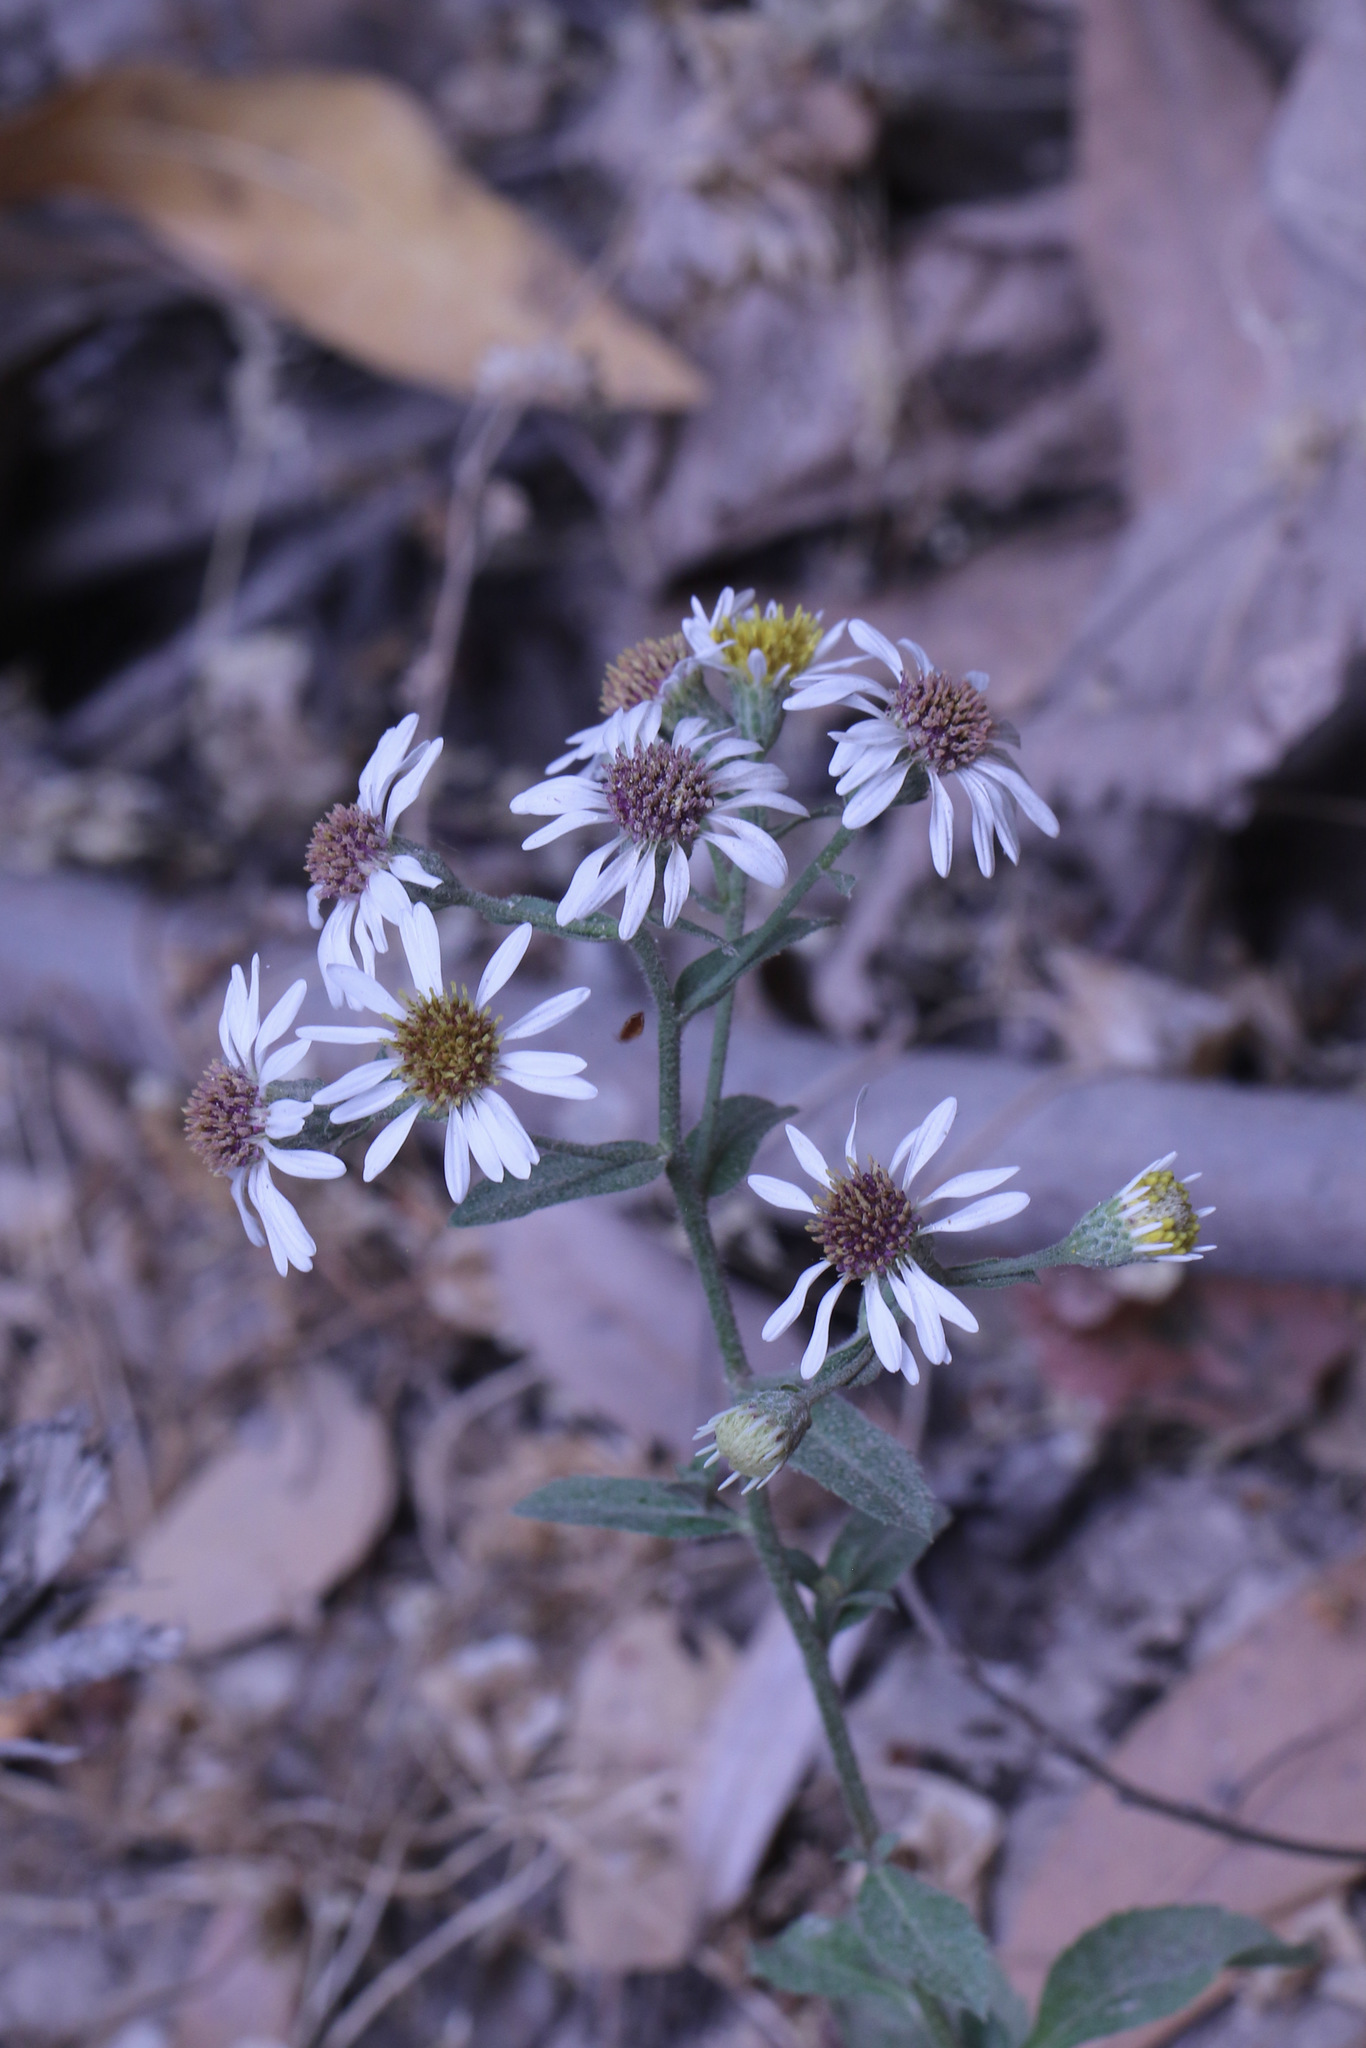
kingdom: Plantae
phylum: Tracheophyta
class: Magnoliopsida
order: Asterales
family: Asteraceae
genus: Eurybia
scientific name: Eurybia radulina
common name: Rough-leaved aster
